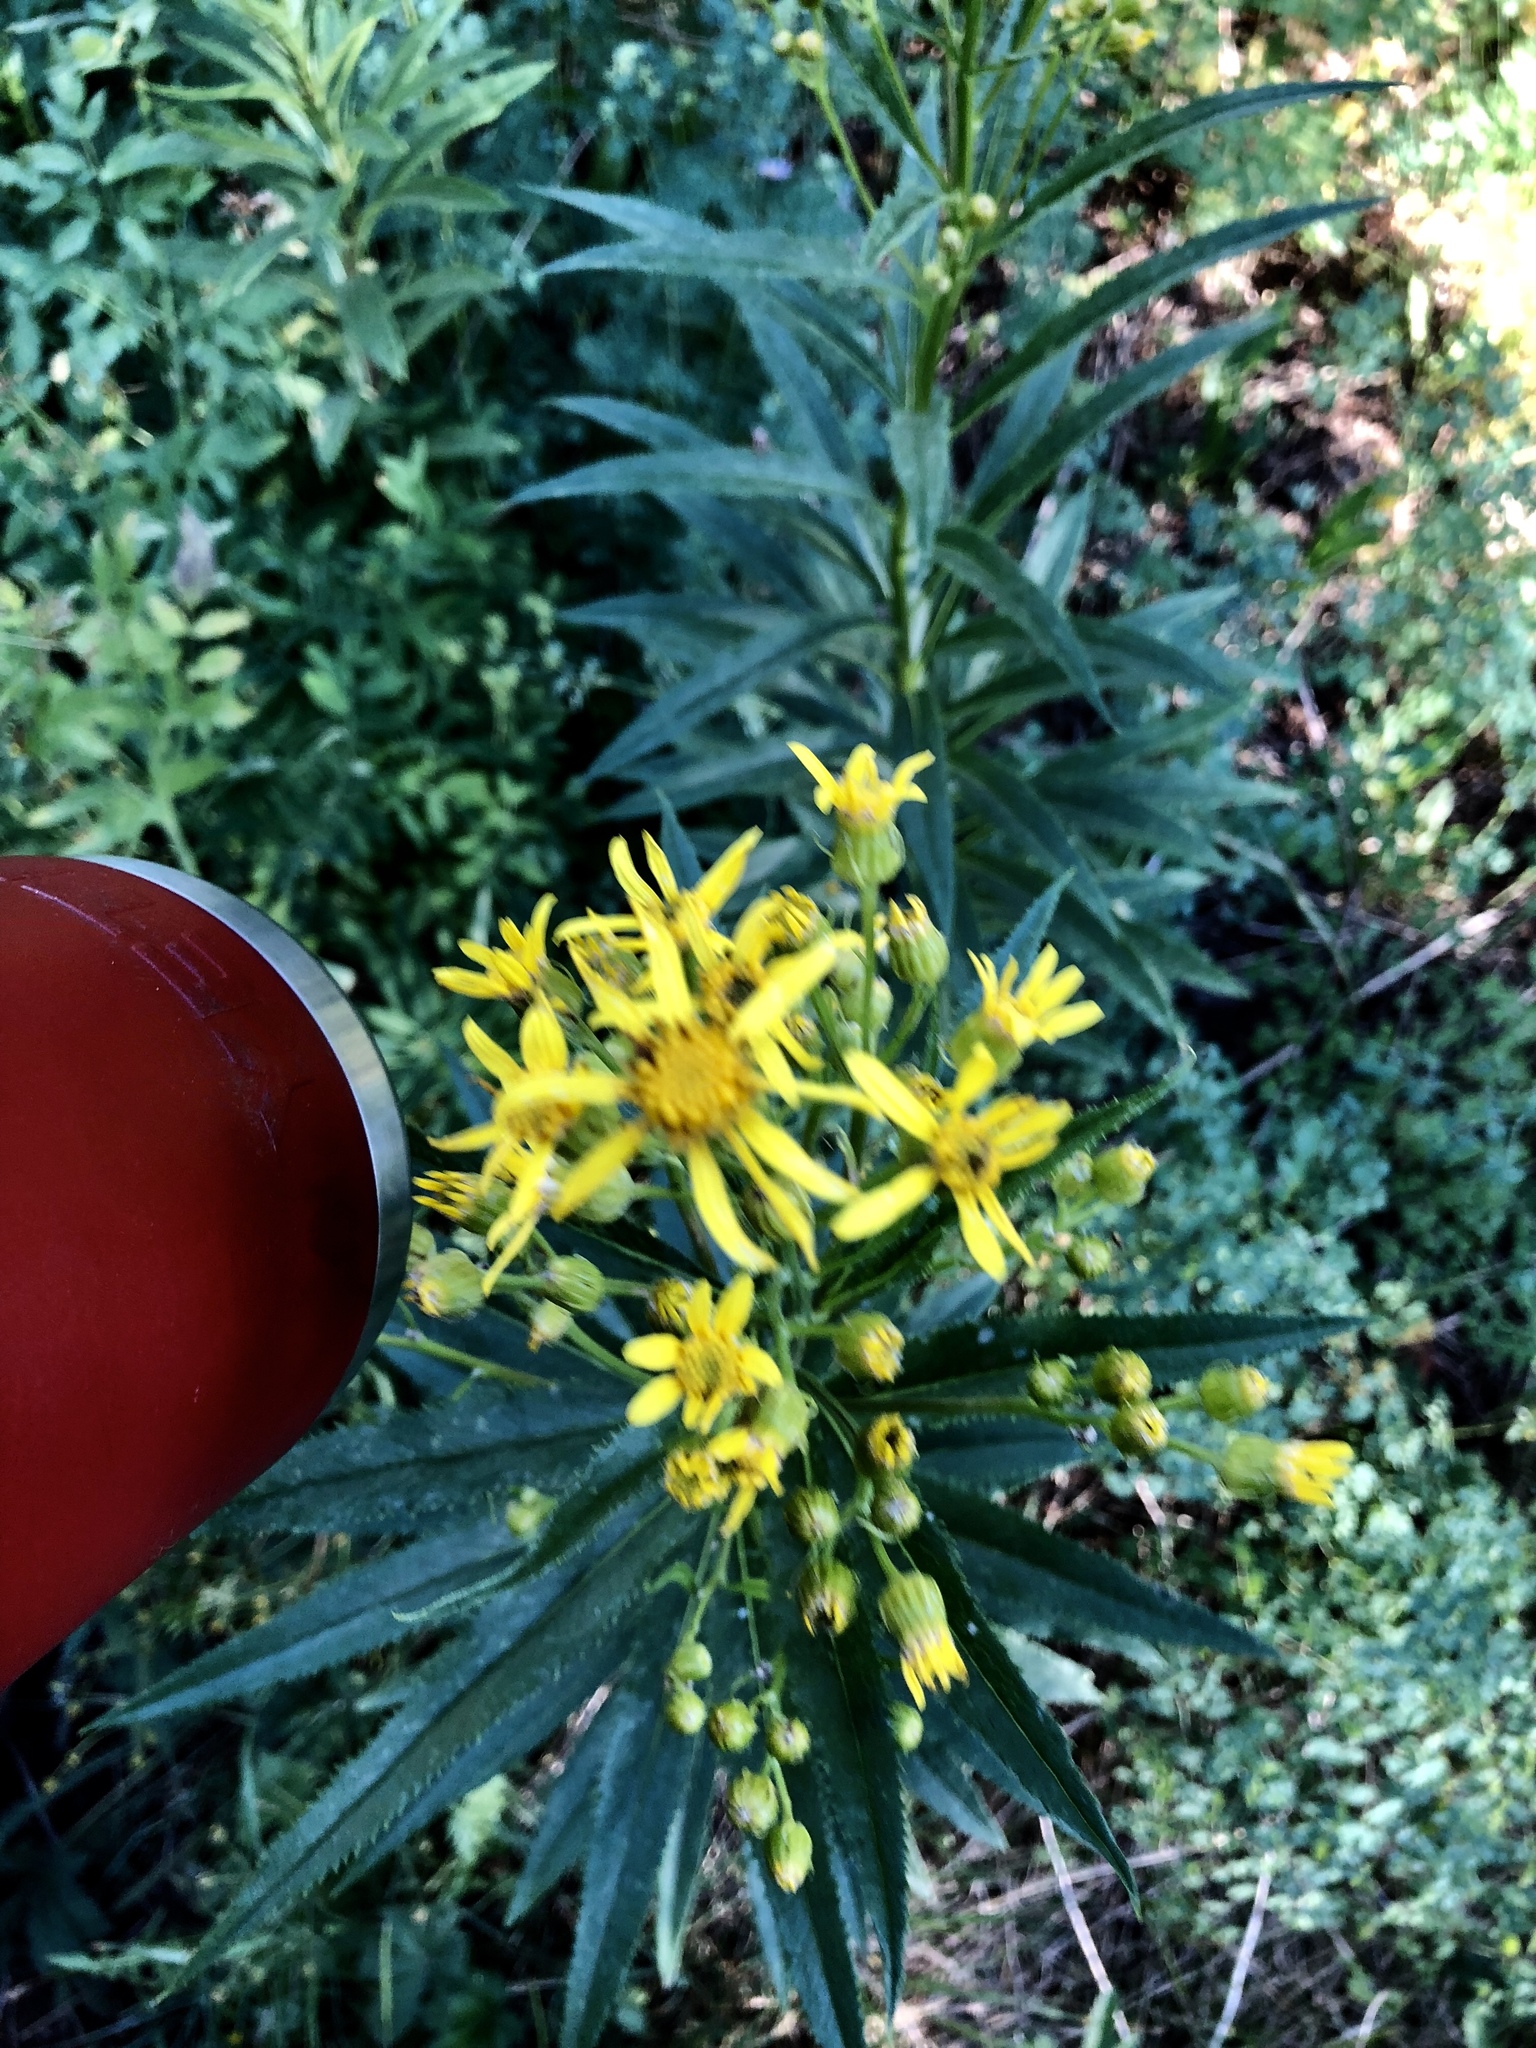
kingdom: Plantae
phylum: Tracheophyta
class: Magnoliopsida
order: Asterales
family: Asteraceae
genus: Senecio
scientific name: Senecio serra
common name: Tall ragwort
